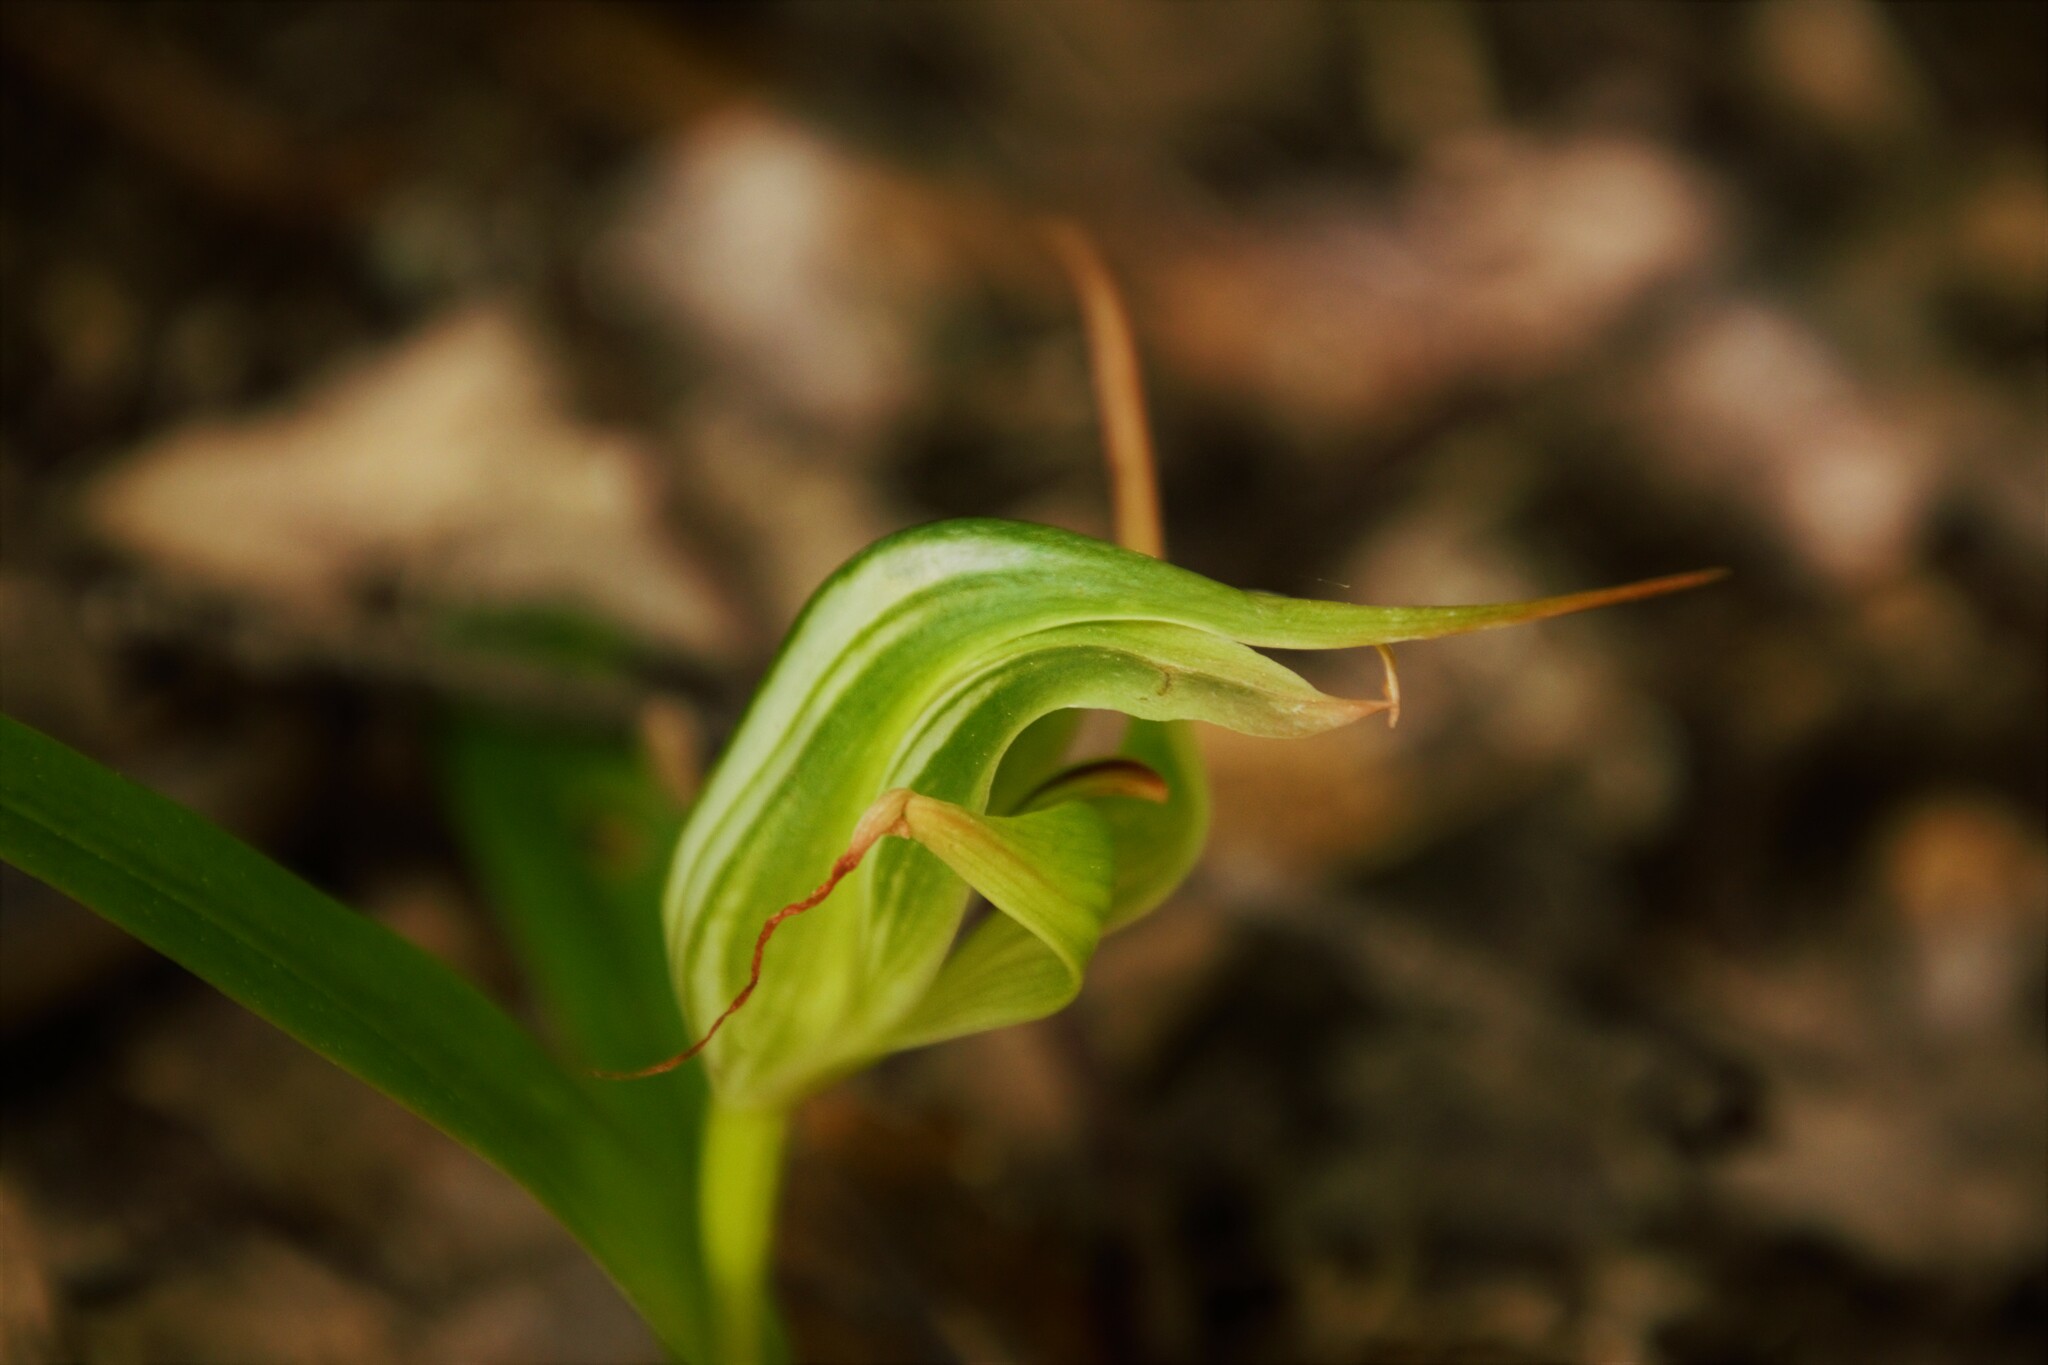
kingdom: Plantae
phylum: Tracheophyta
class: Liliopsida
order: Asparagales
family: Orchidaceae
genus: Pterostylis
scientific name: Pterostylis banksii
